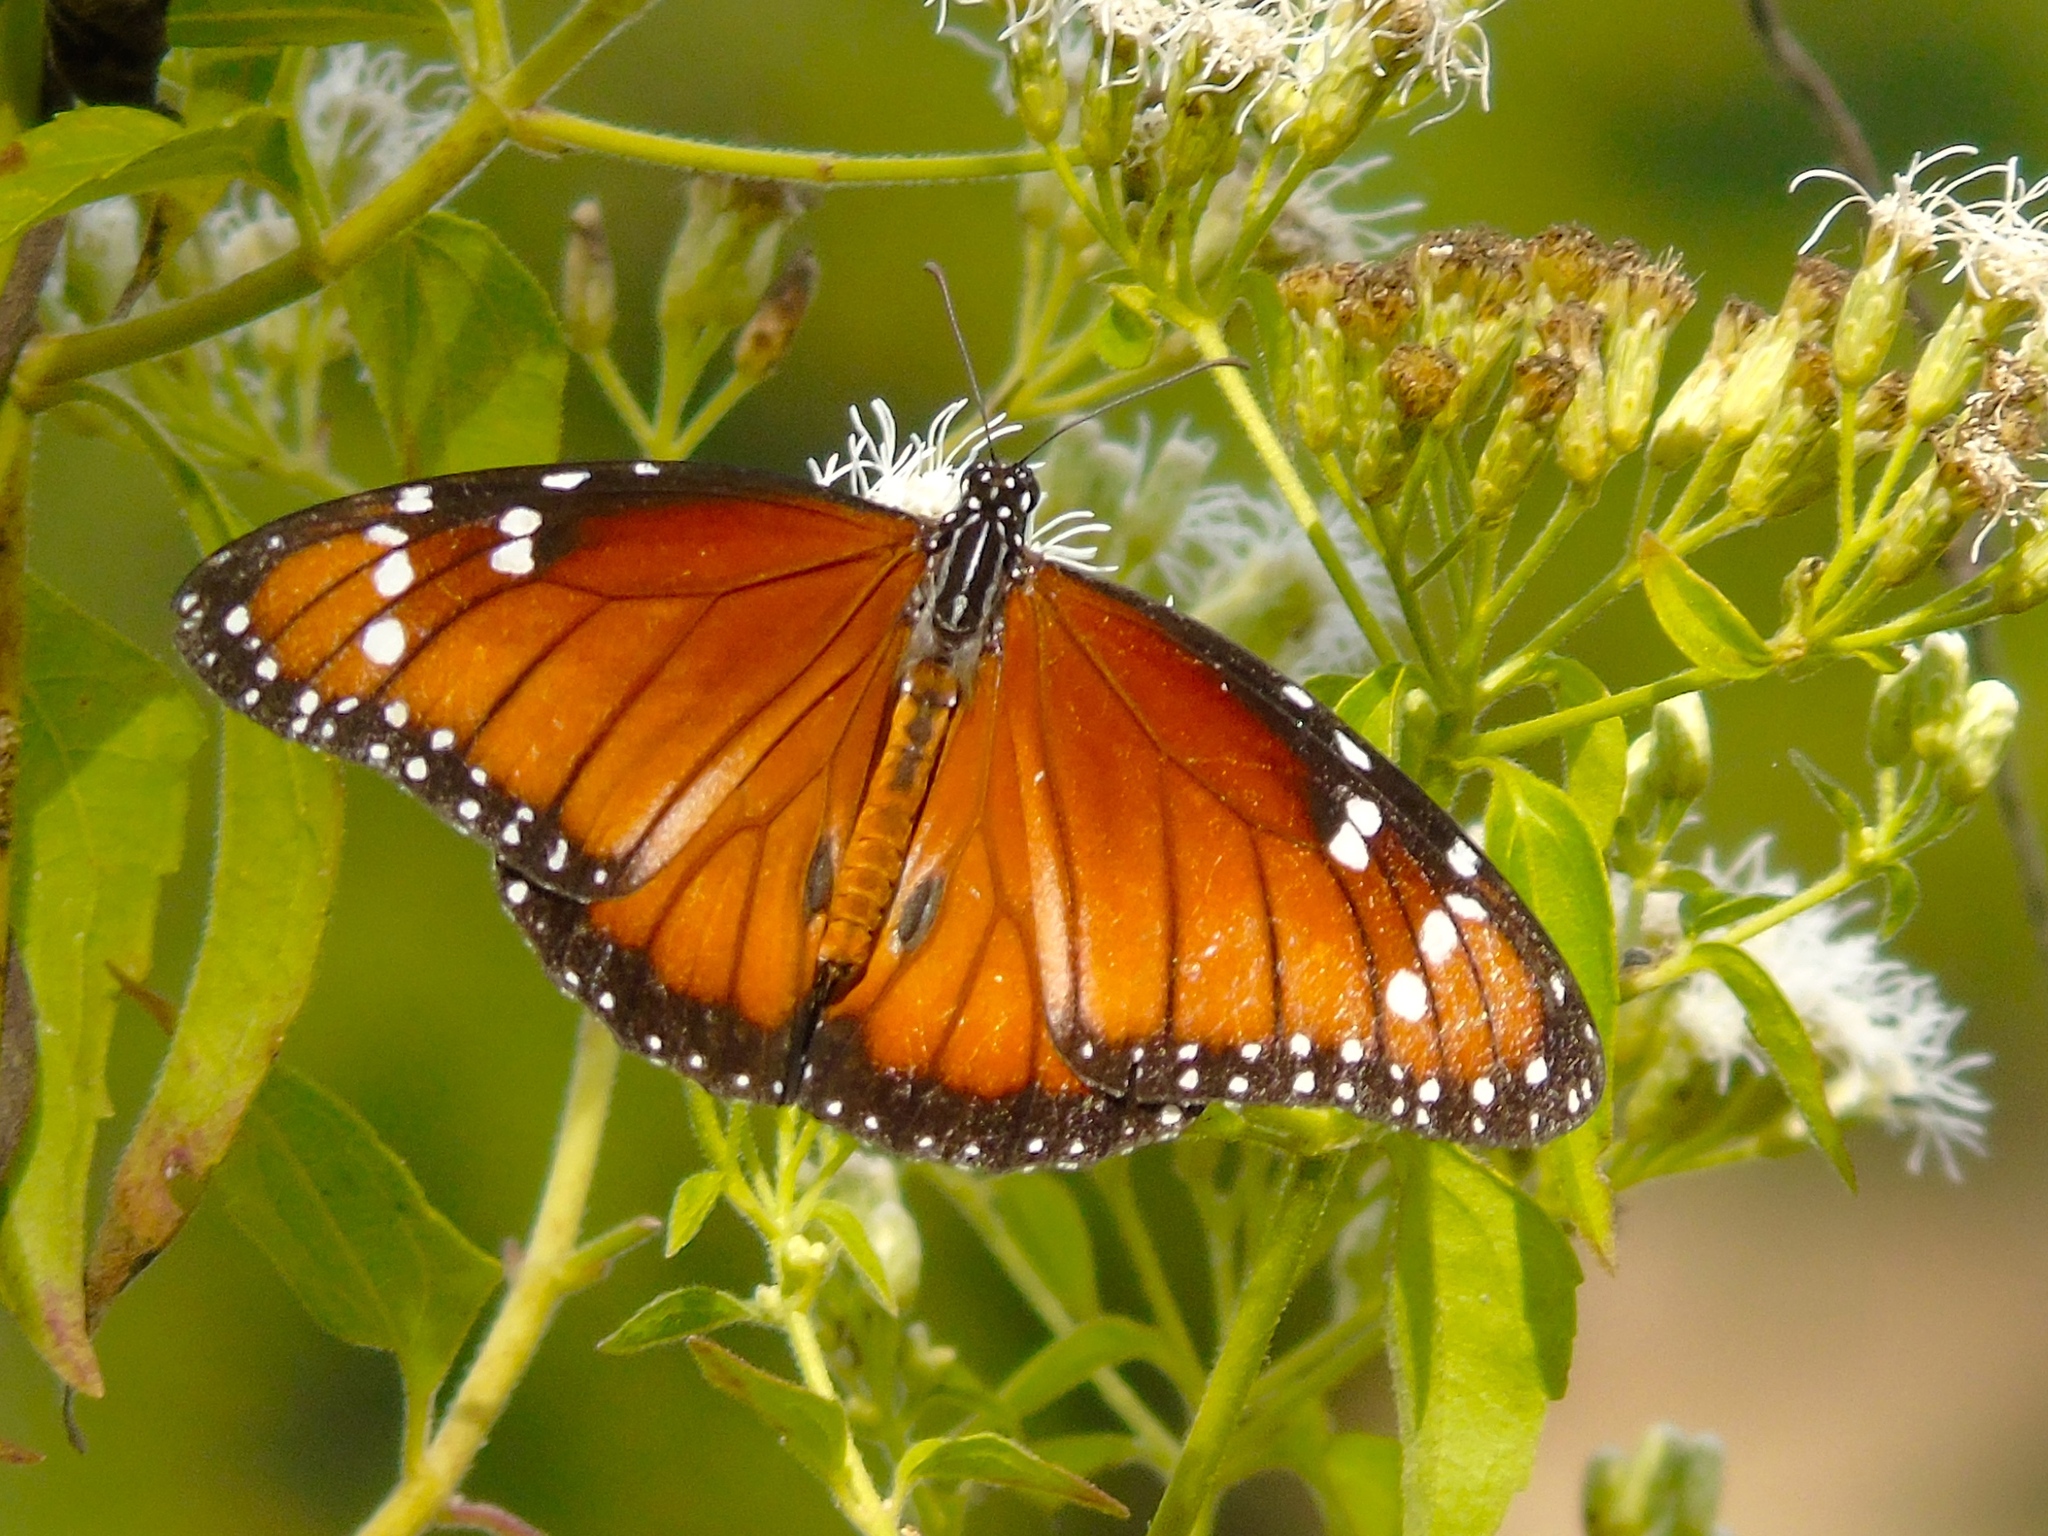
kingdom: Animalia
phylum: Arthropoda
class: Insecta
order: Lepidoptera
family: Nymphalidae
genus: Danaus
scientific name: Danaus eresimus
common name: Soldier
